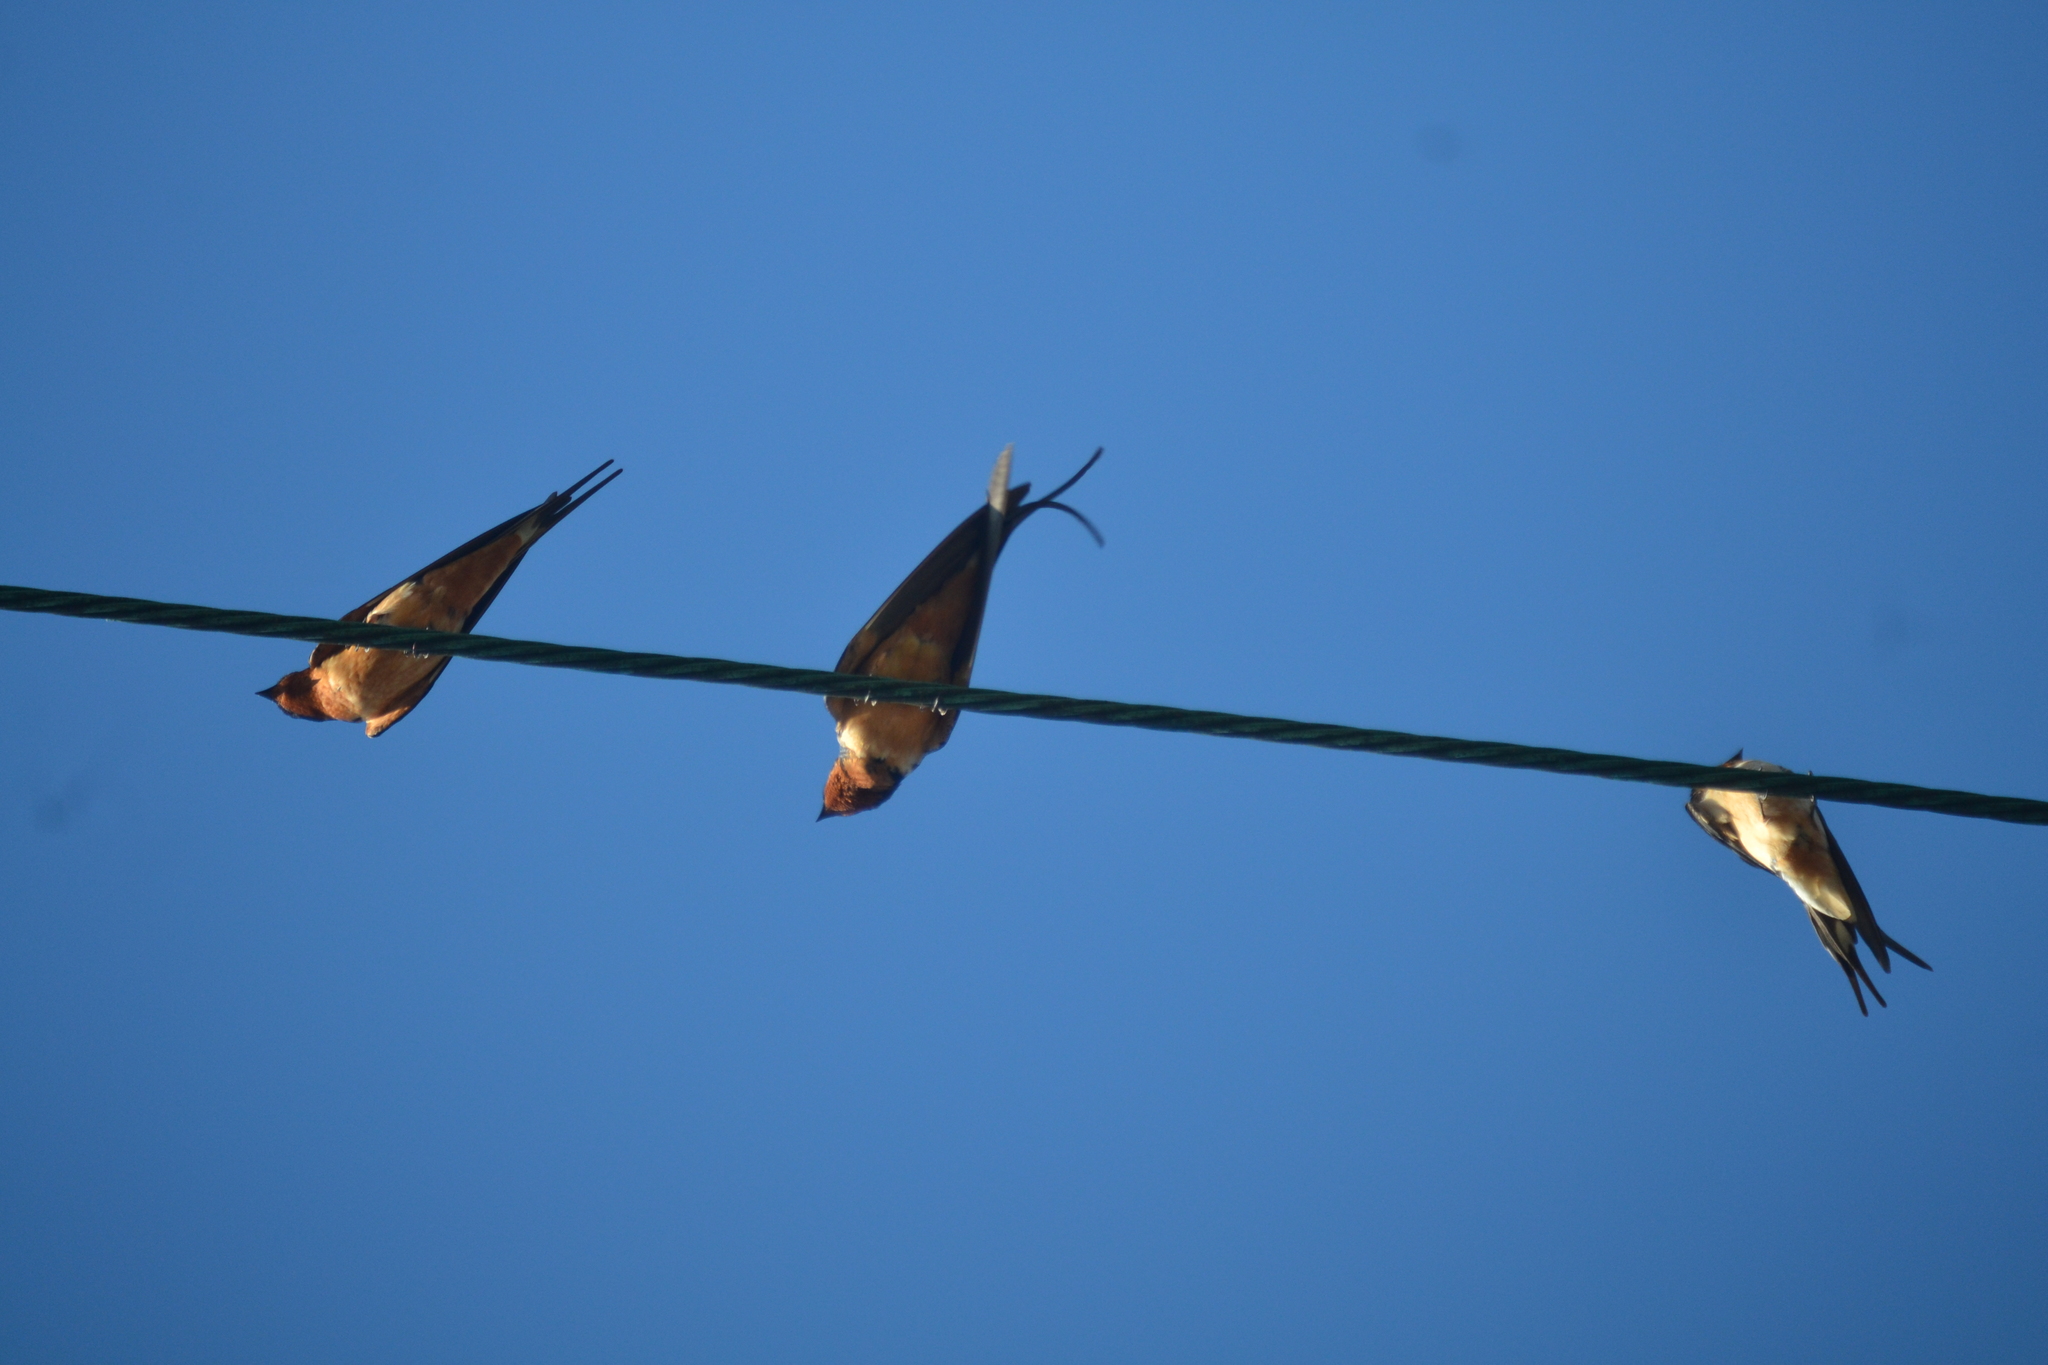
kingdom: Animalia
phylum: Chordata
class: Aves
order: Passeriformes
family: Hirundinidae
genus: Hirundo
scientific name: Hirundo rustica
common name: Barn swallow
